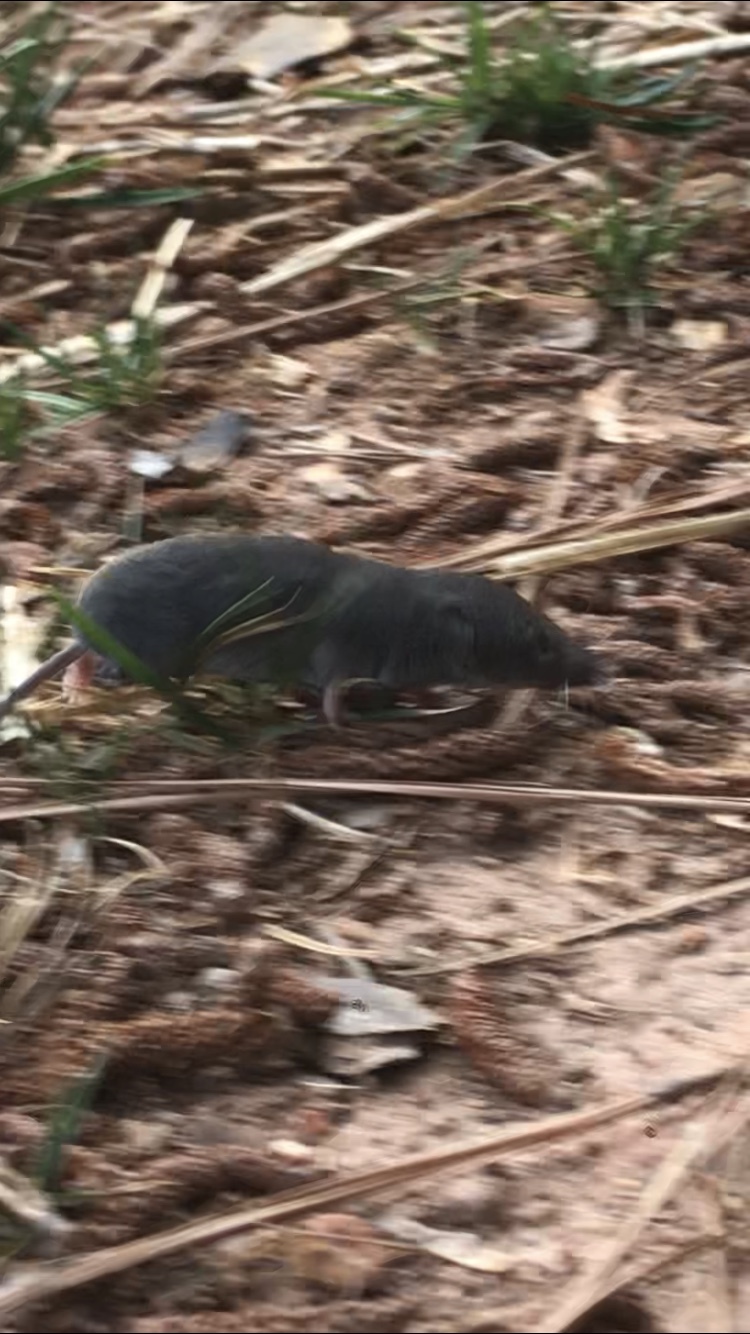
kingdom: Animalia
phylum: Chordata
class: Mammalia
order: Soricomorpha
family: Soricidae
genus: Blarina
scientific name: Blarina carolinensis
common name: Southern short-tailed shrew
